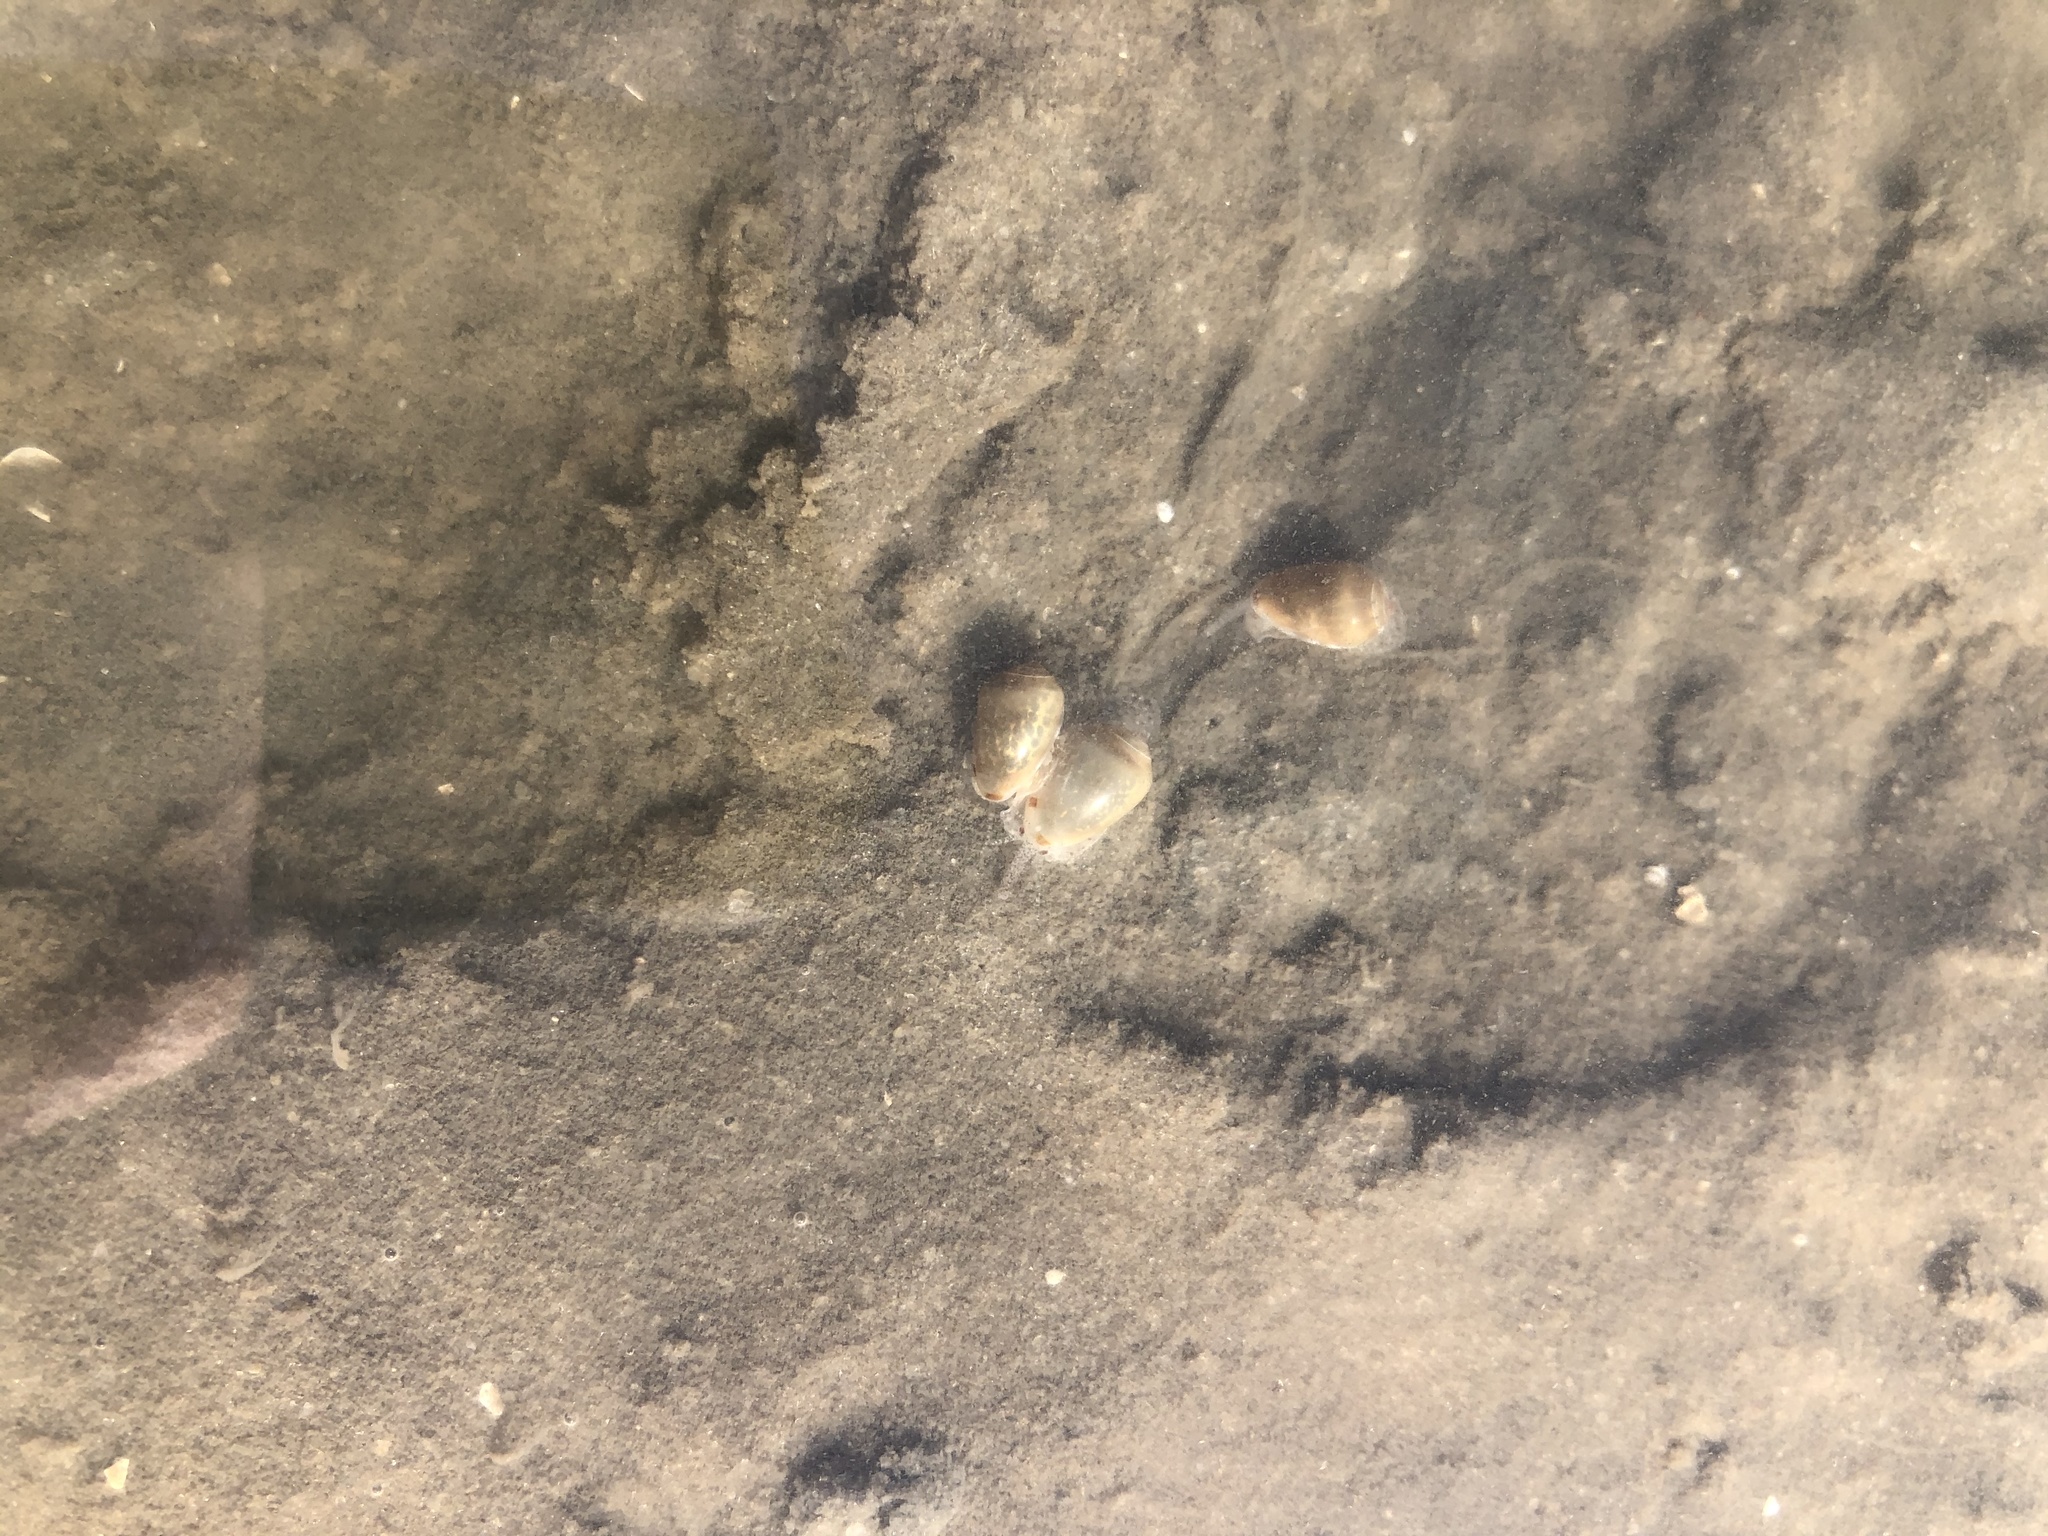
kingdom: Animalia
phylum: Mollusca
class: Gastropoda
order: Neogastropoda
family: Marginellidae
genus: Prunum
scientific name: Prunum apicinum
